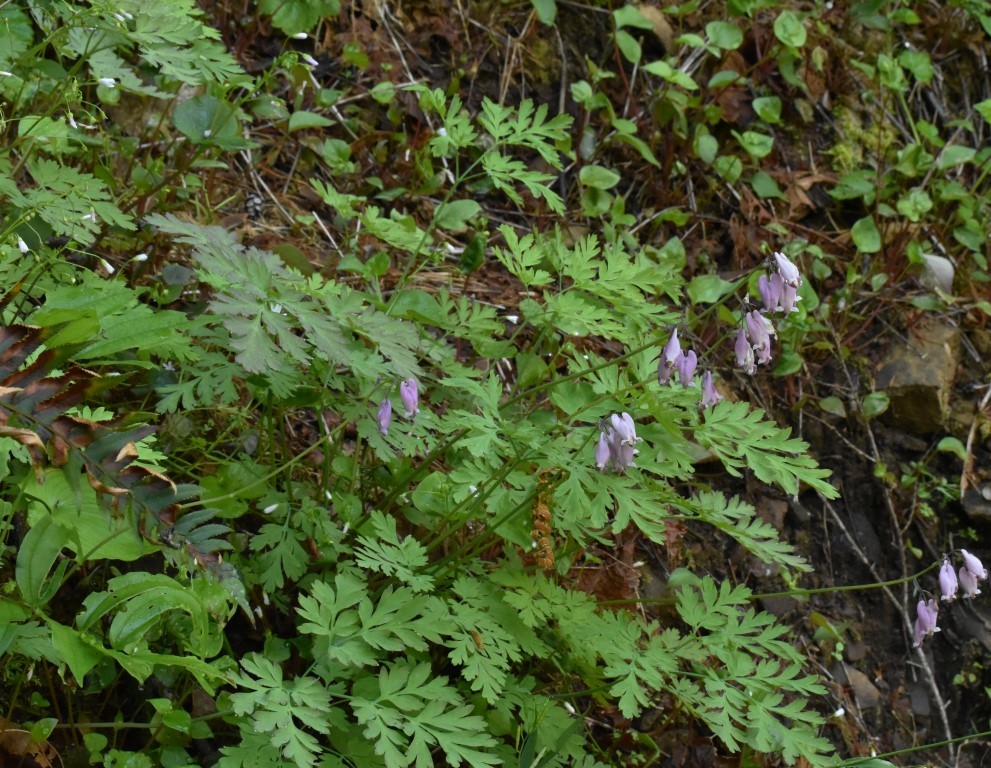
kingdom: Plantae
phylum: Tracheophyta
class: Magnoliopsida
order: Ranunculales
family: Papaveraceae
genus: Dicentra
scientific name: Dicentra formosa
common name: Bleeding-heart
